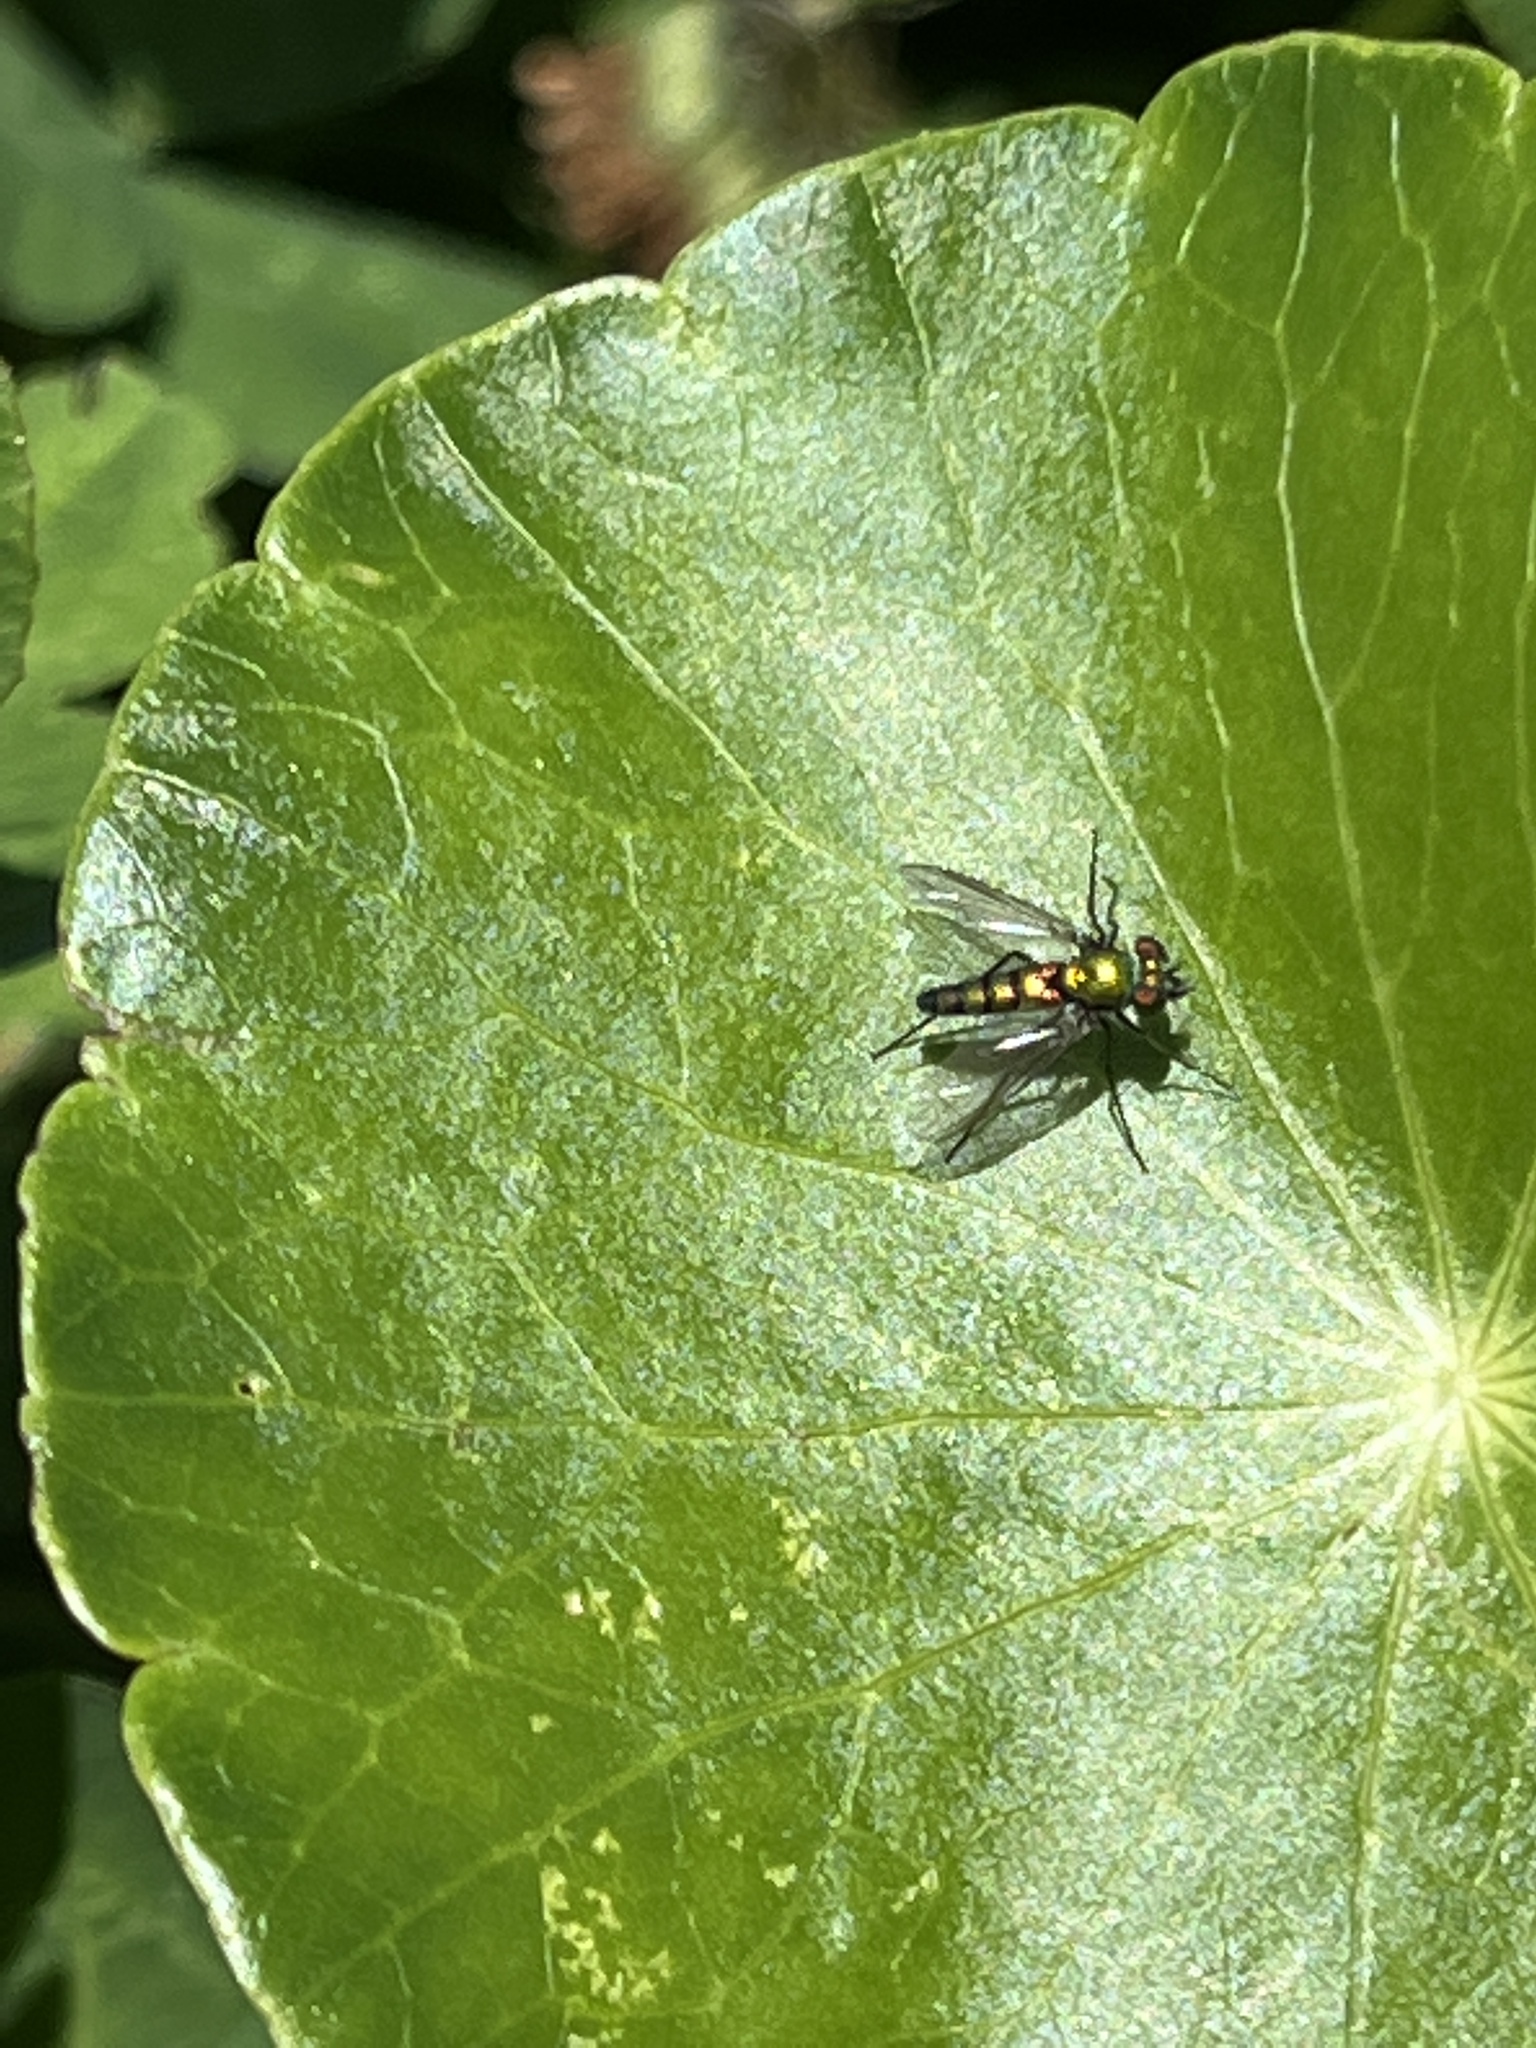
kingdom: Animalia
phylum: Arthropoda
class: Insecta
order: Diptera
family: Dolichopodidae
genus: Condylostylus
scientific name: Condylostylus longicornis
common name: Long-legged fly
